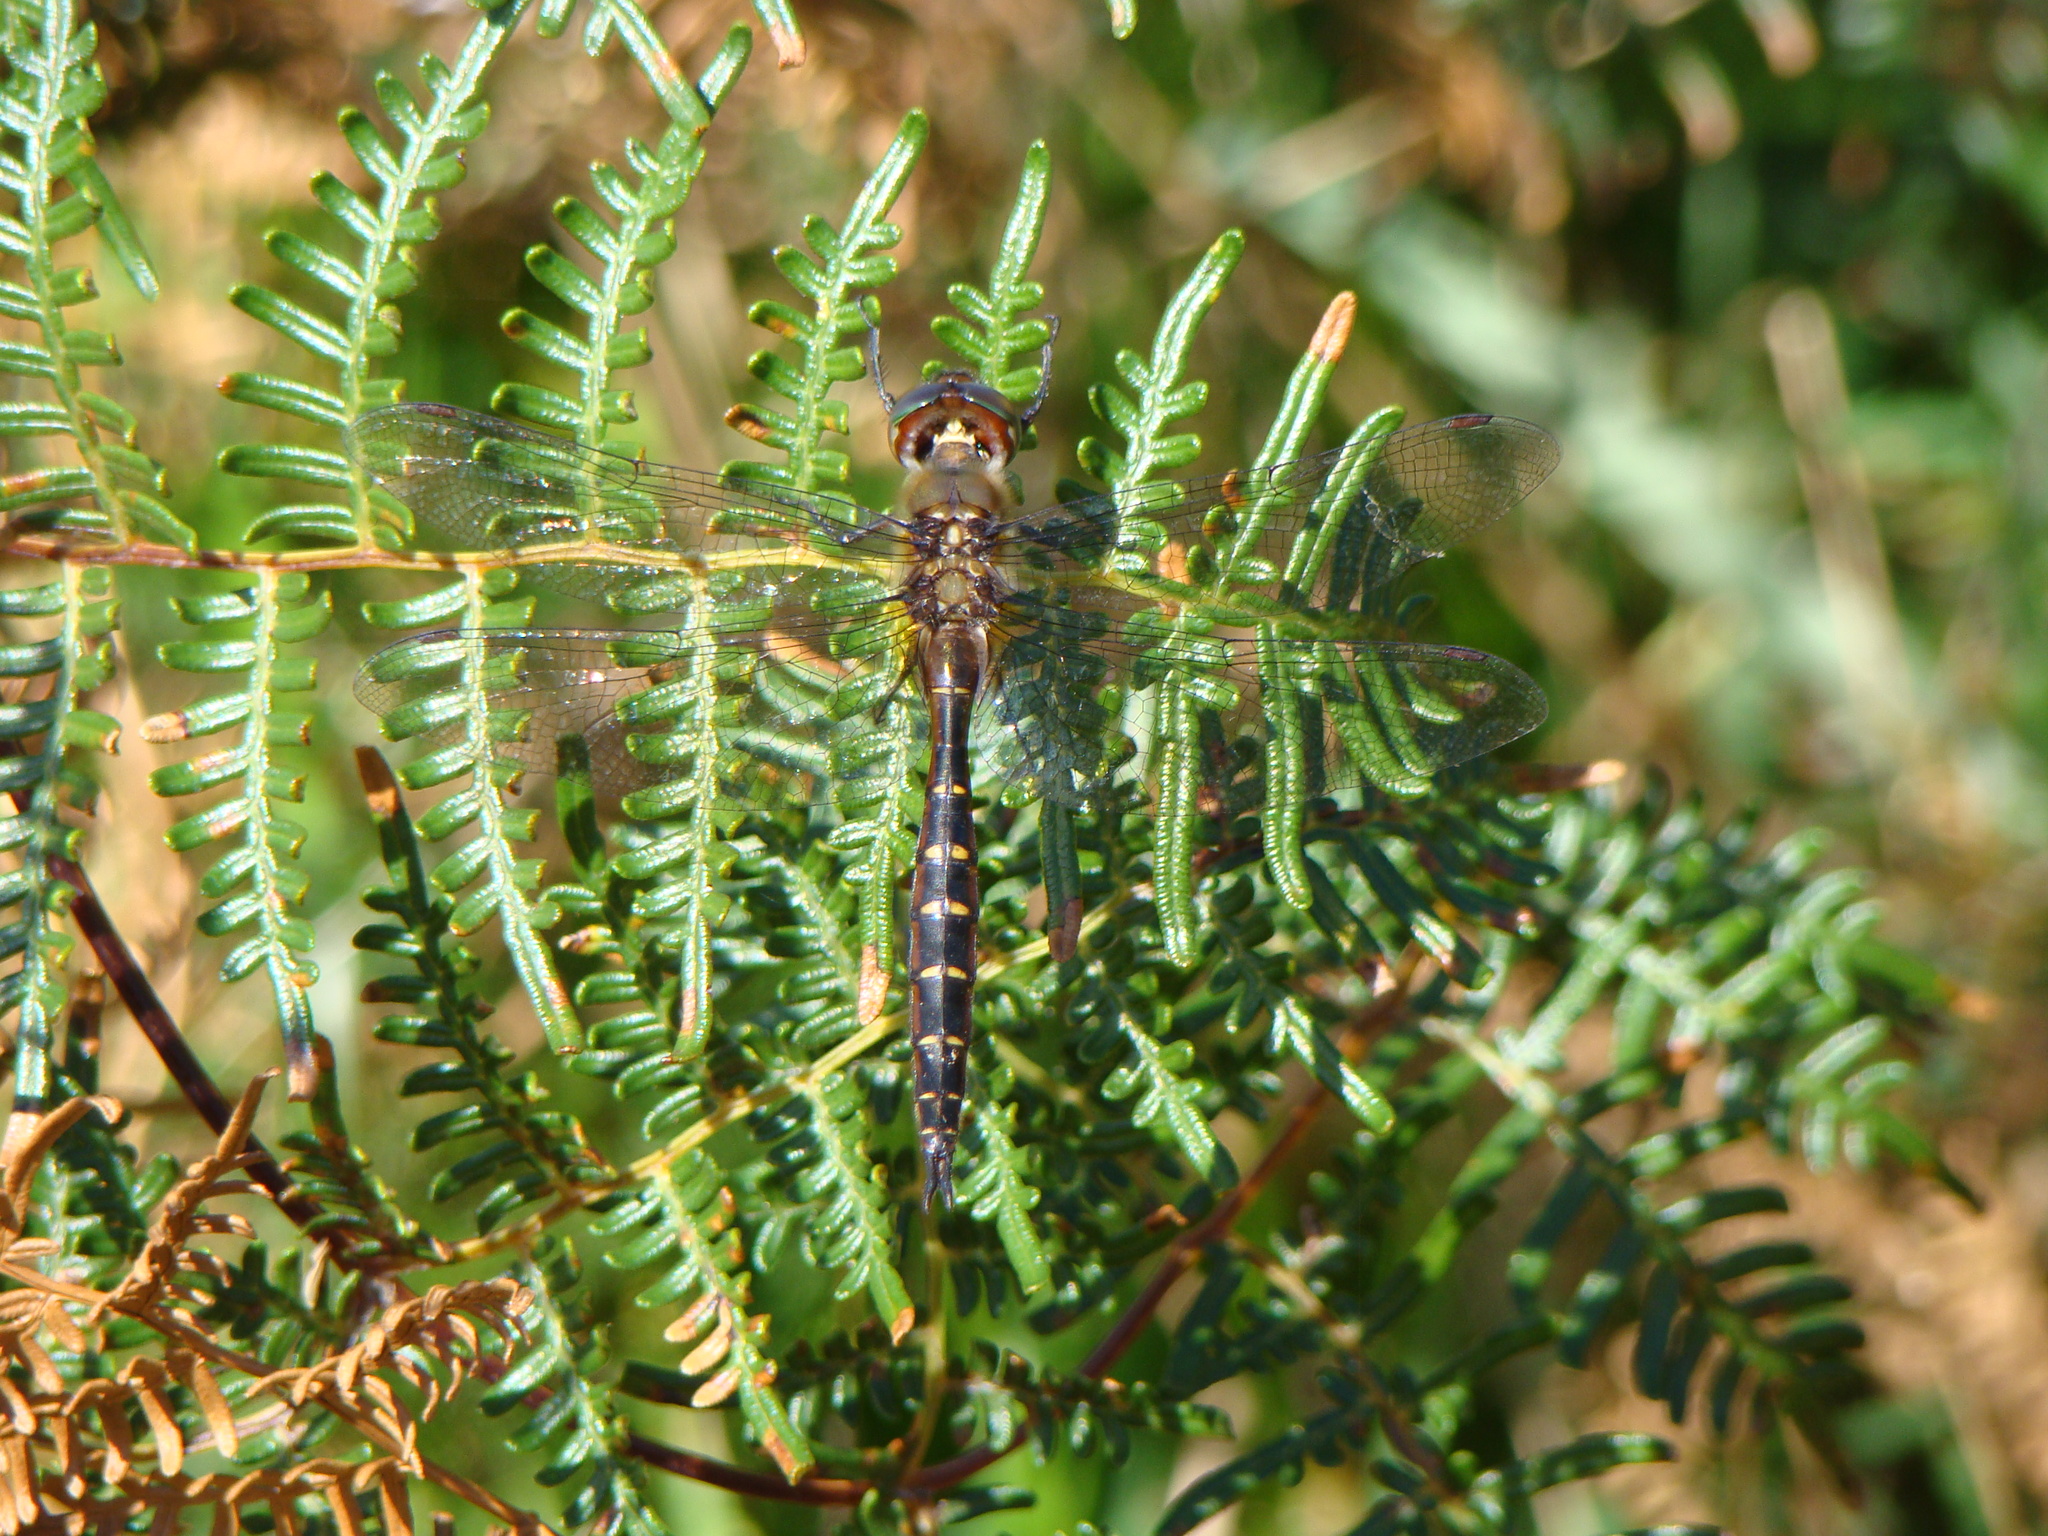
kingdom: Animalia
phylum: Arthropoda
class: Insecta
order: Odonata
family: Corduliidae
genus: Procordulia
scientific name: Procordulia smithii
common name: Ranger dragonfly
